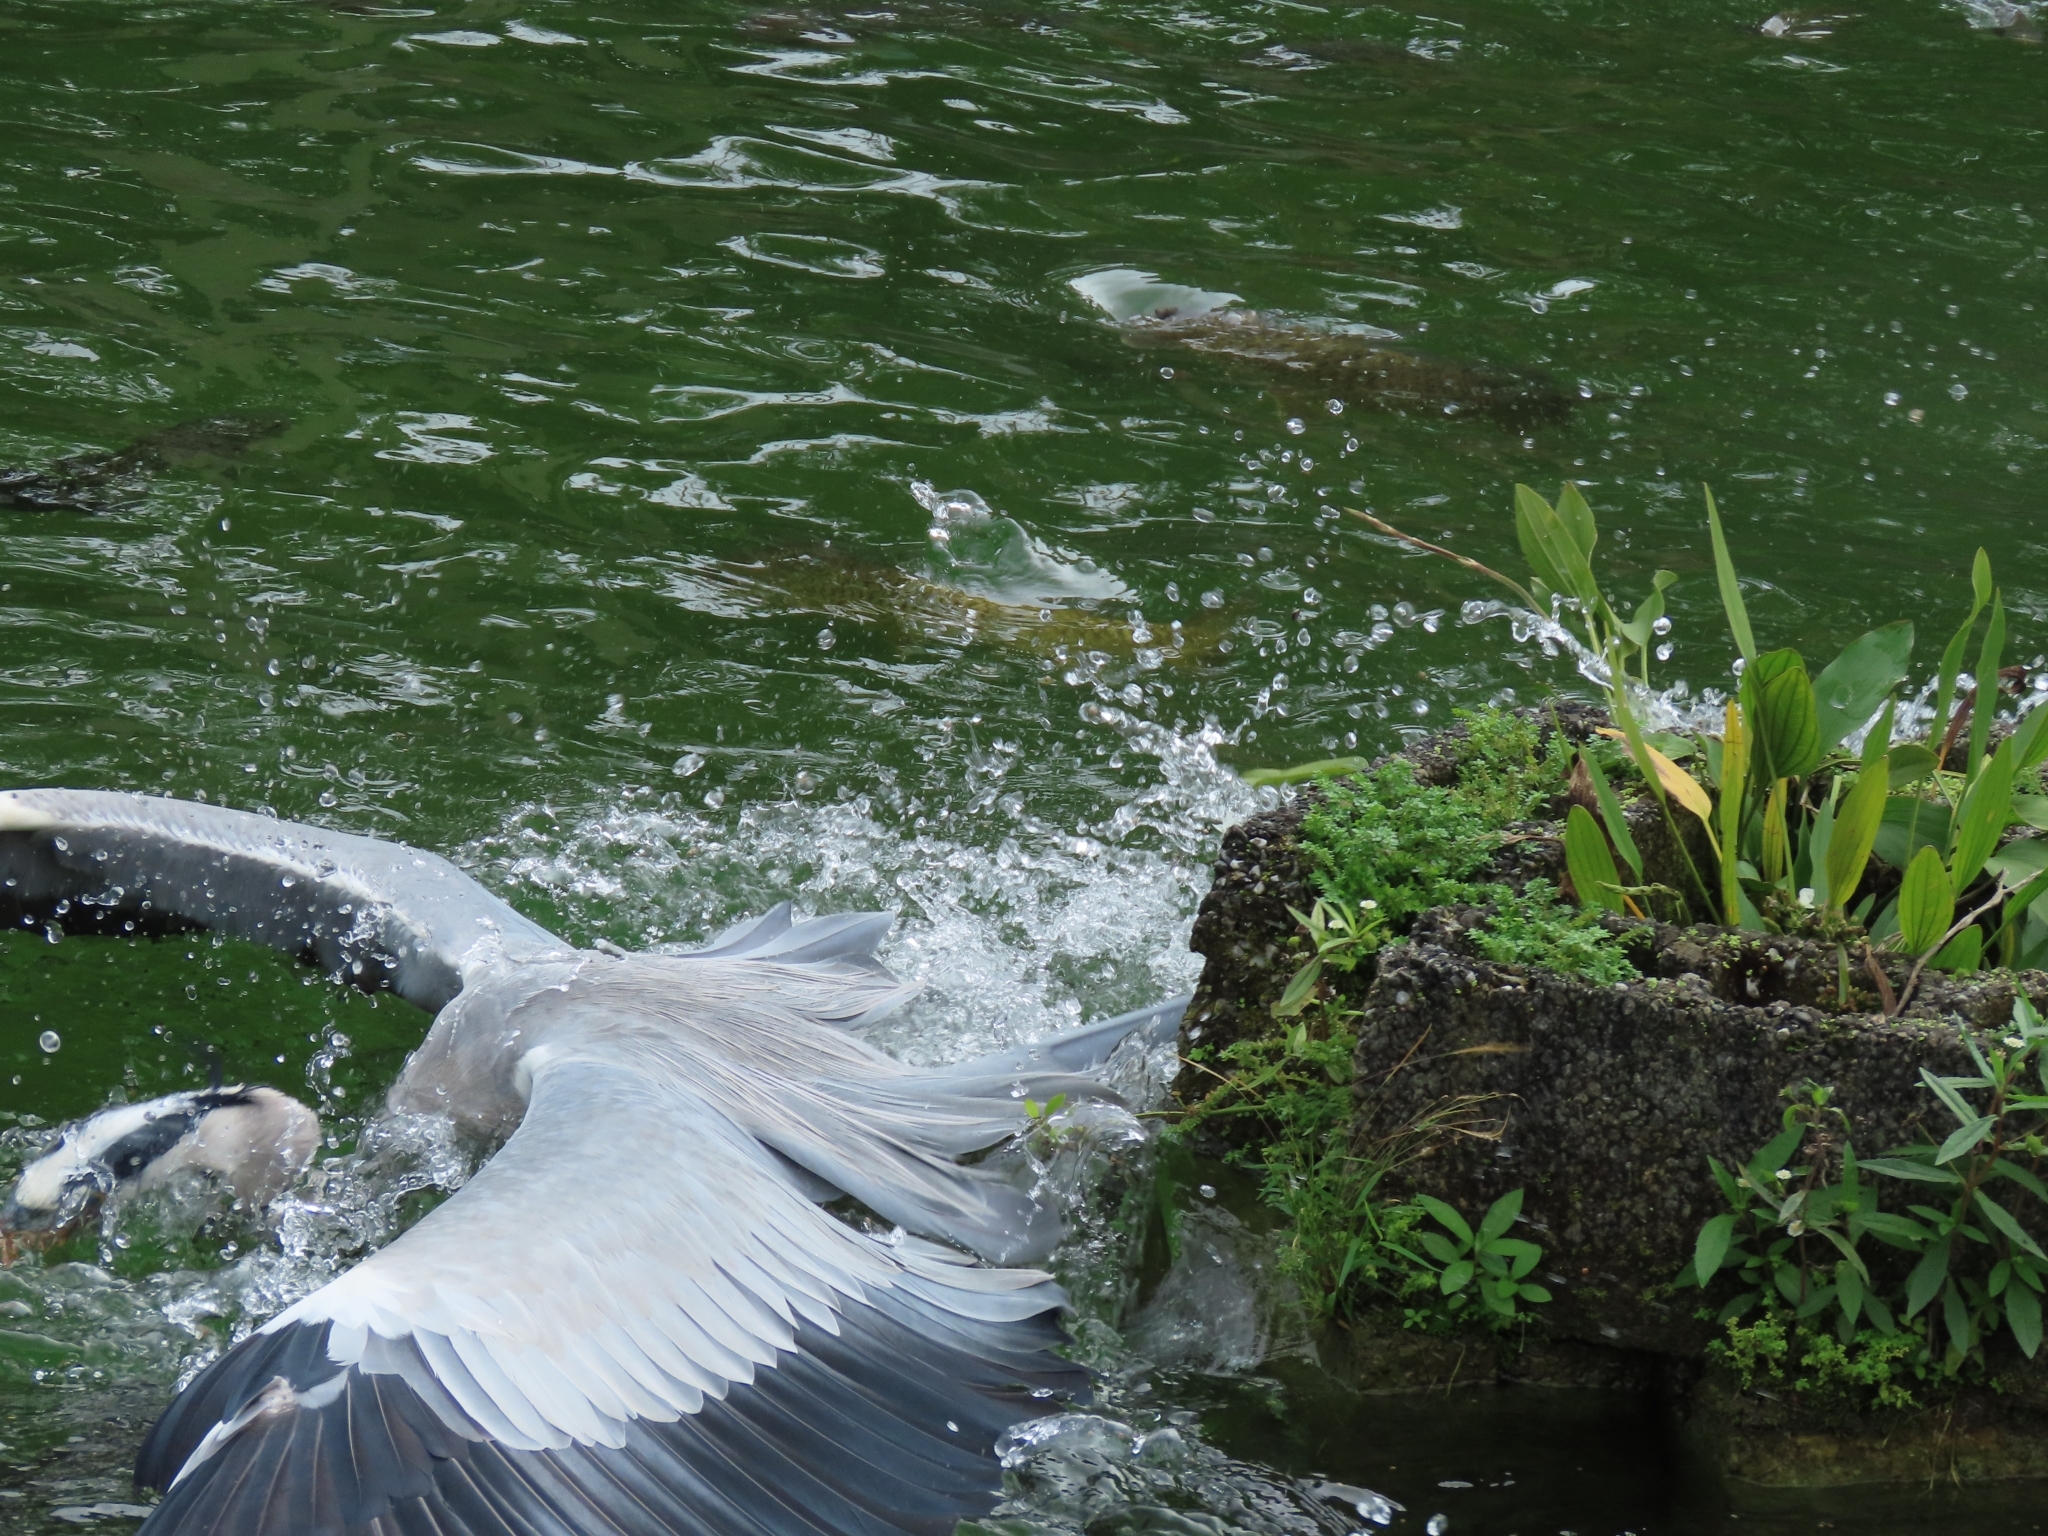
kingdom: Animalia
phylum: Chordata
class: Aves
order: Pelecaniformes
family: Ardeidae
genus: Ardea
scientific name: Ardea cinerea
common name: Grey heron
